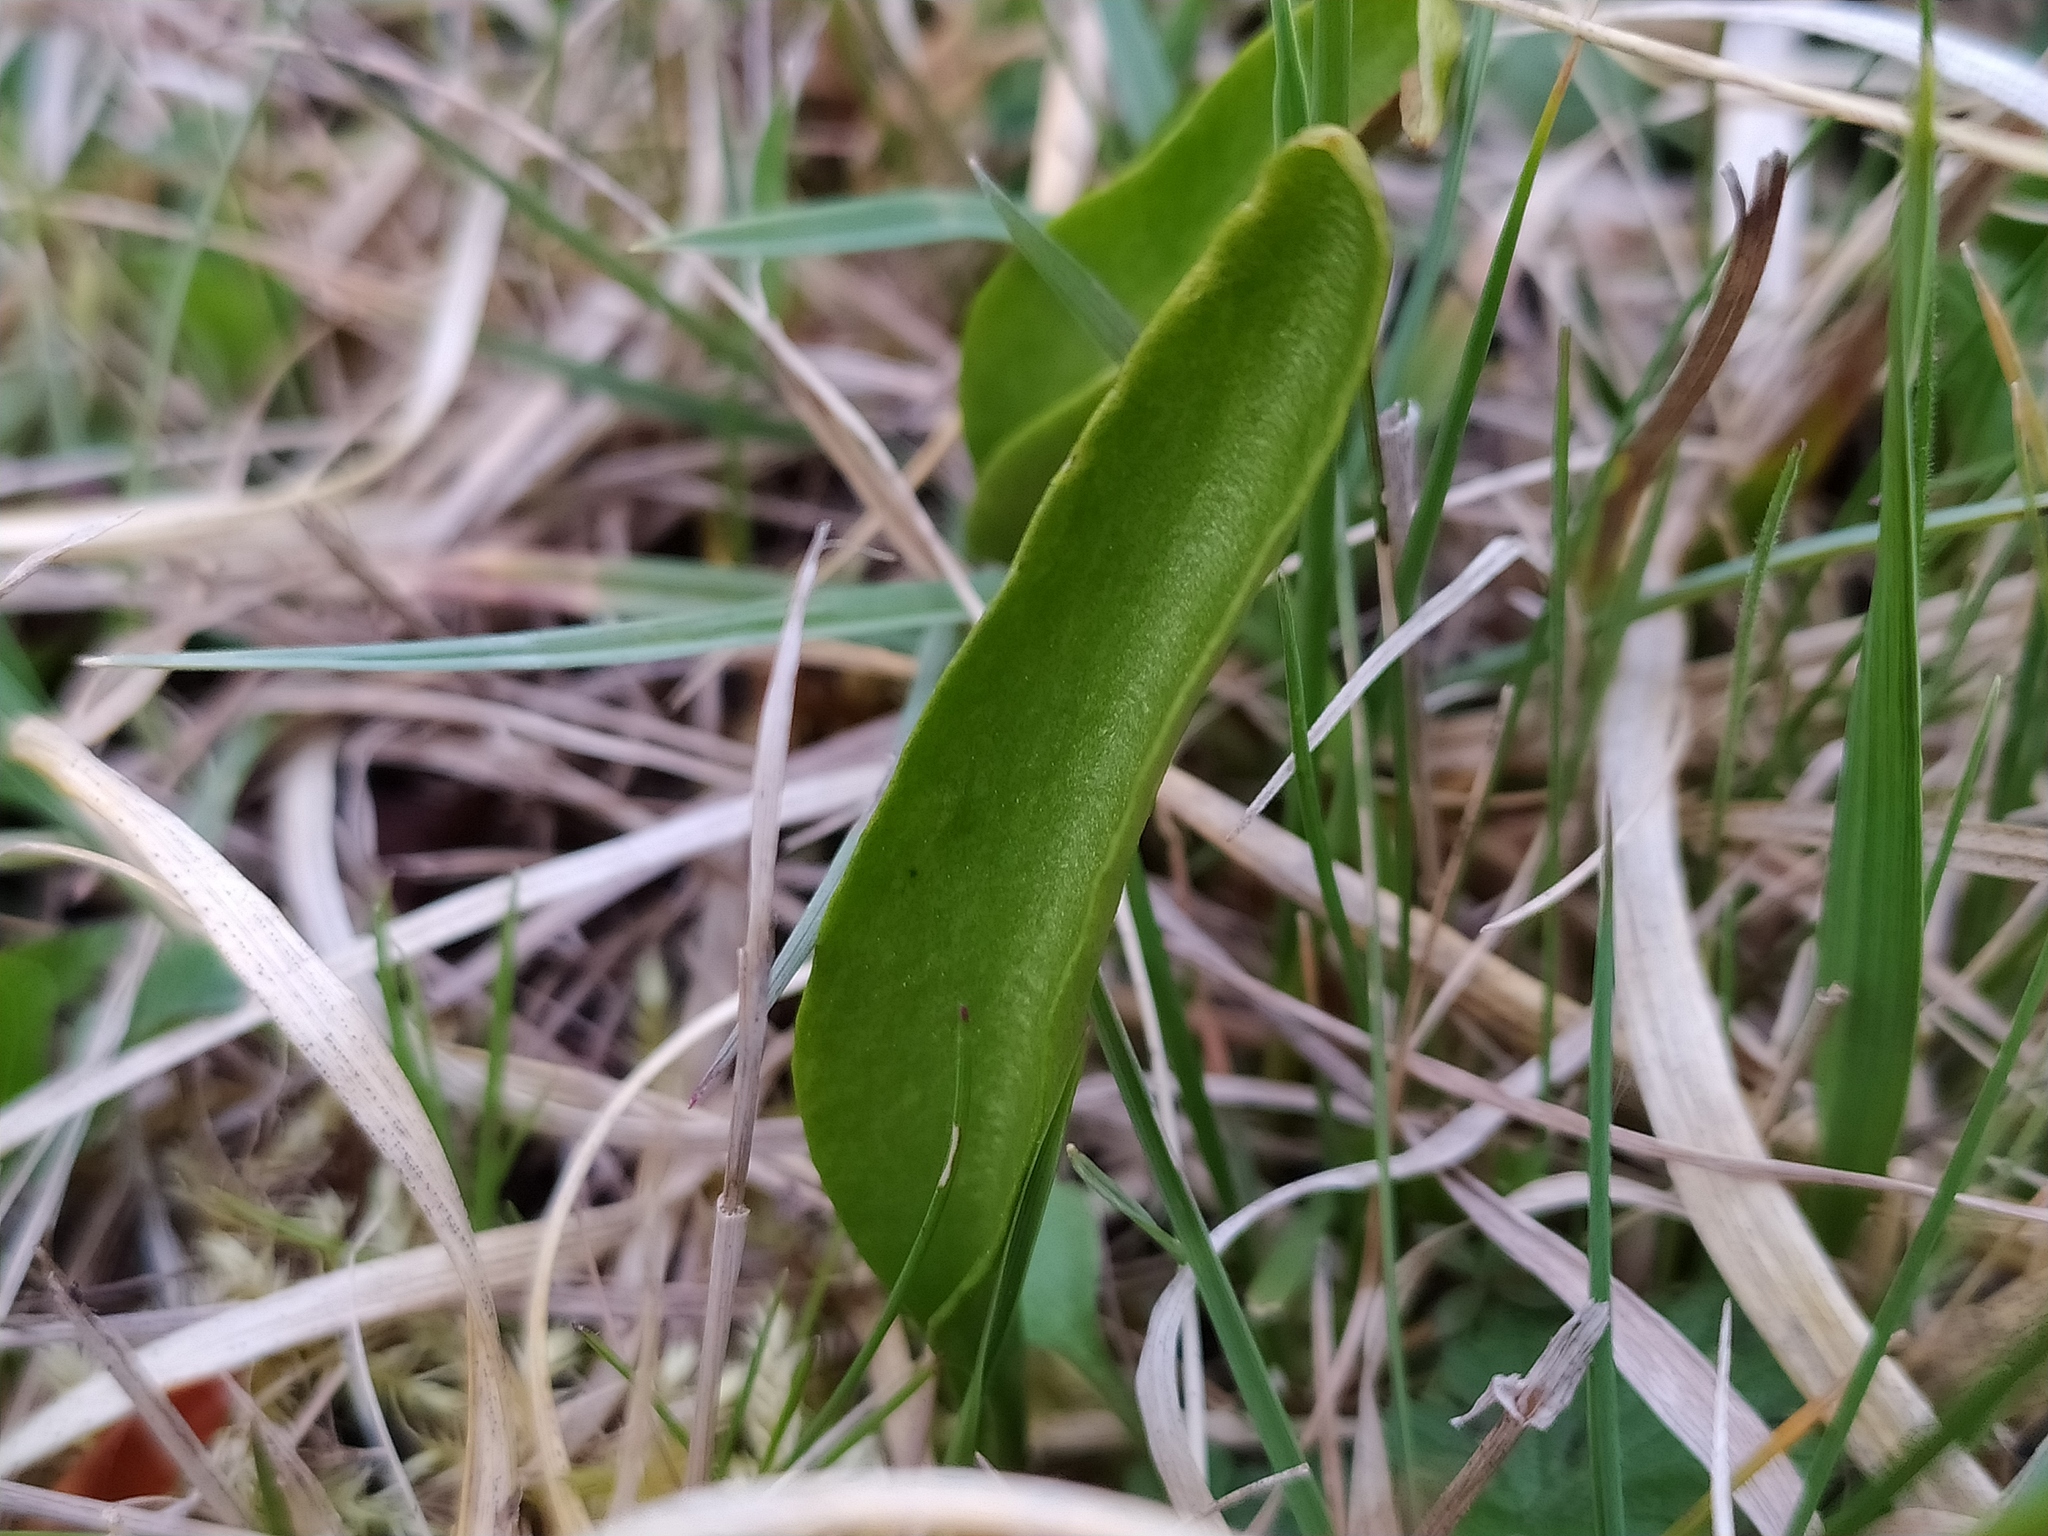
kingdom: Plantae
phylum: Tracheophyta
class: Polypodiopsida
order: Ophioglossales
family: Ophioglossaceae
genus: Ophioglossum
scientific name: Ophioglossum vulgatum
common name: Adder's-tongue
